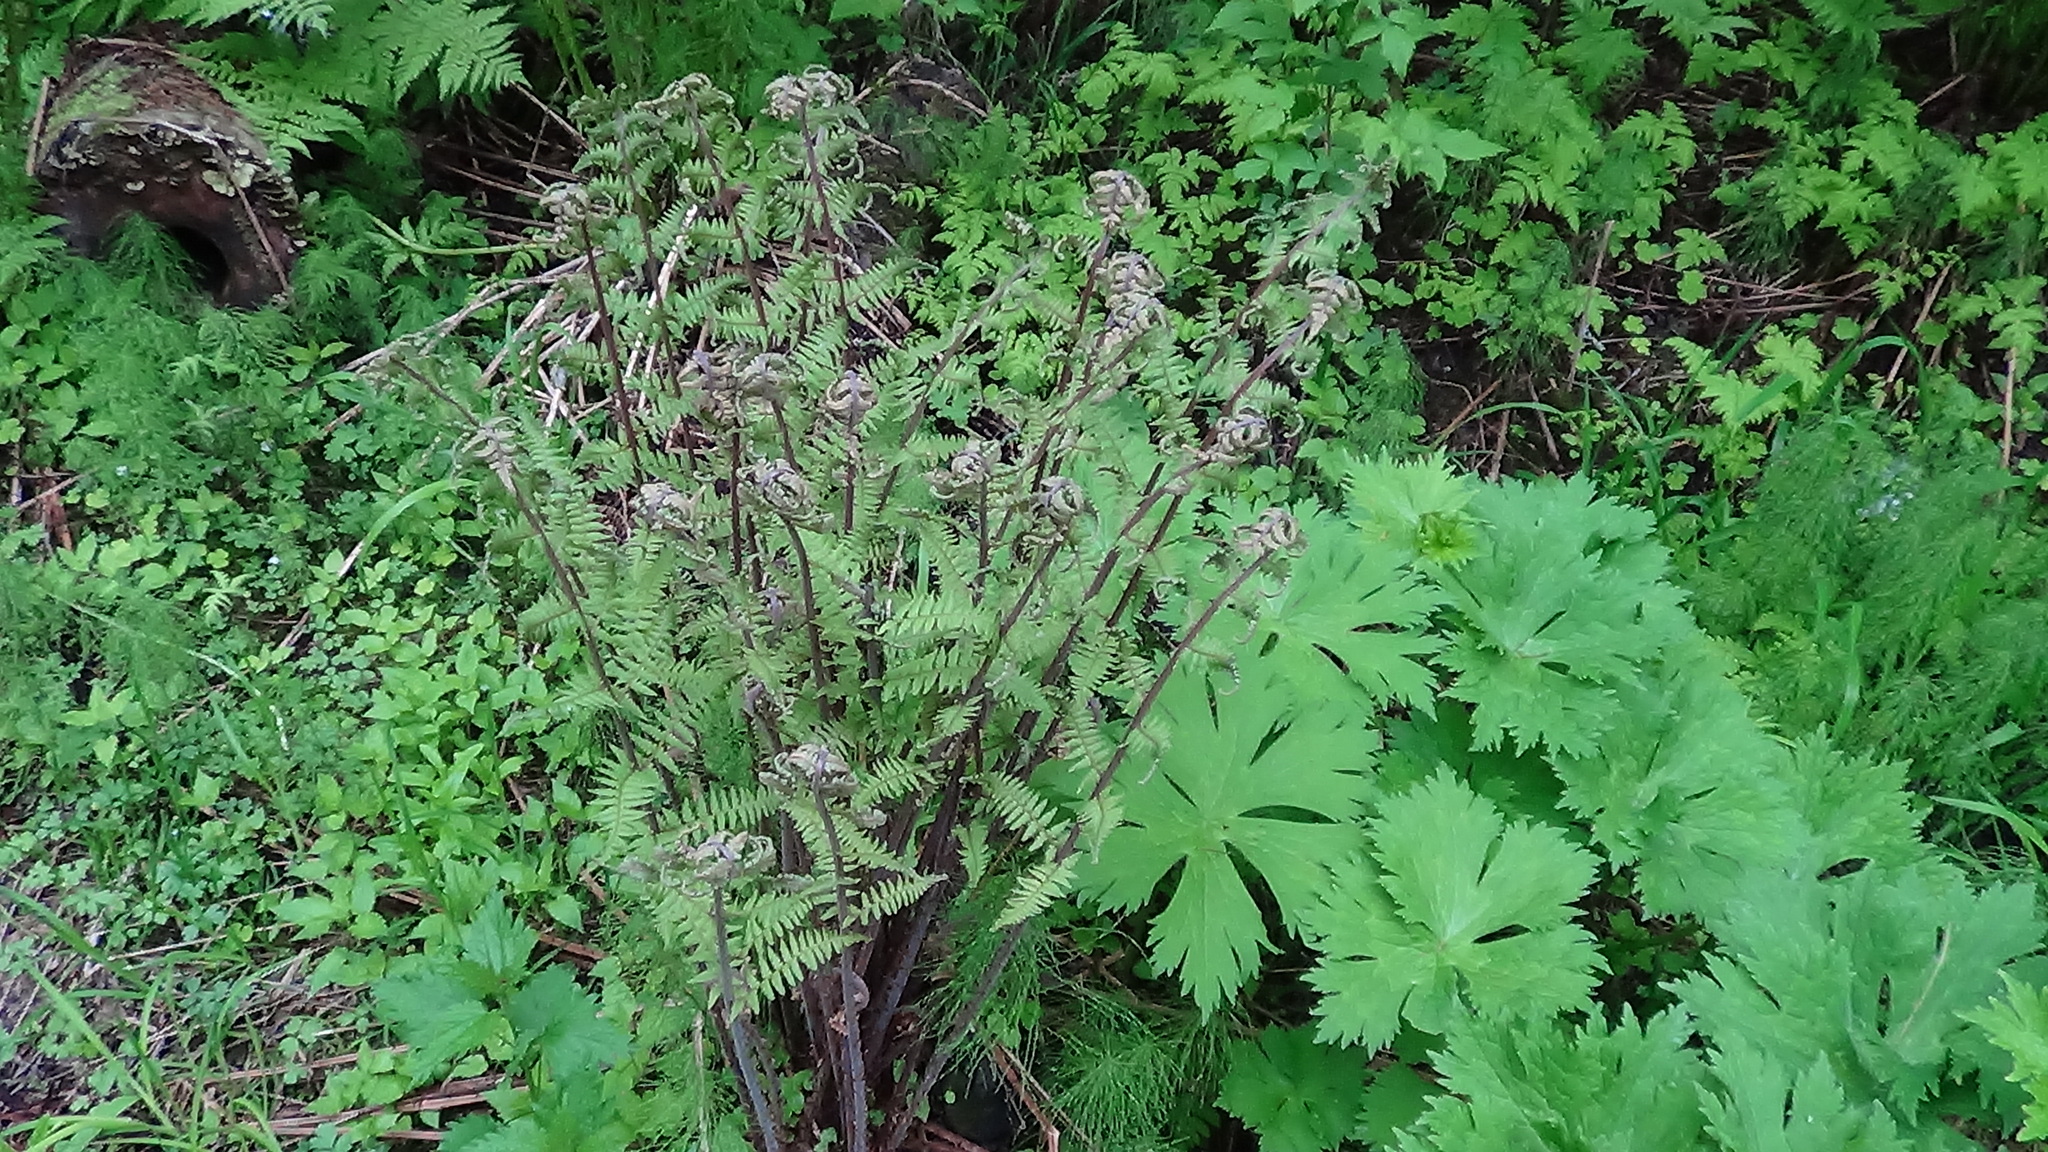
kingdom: Plantae
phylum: Tracheophyta
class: Polypodiopsida
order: Polypodiales
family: Athyriaceae
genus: Athyrium
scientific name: Athyrium filix-femina
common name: Lady fern
